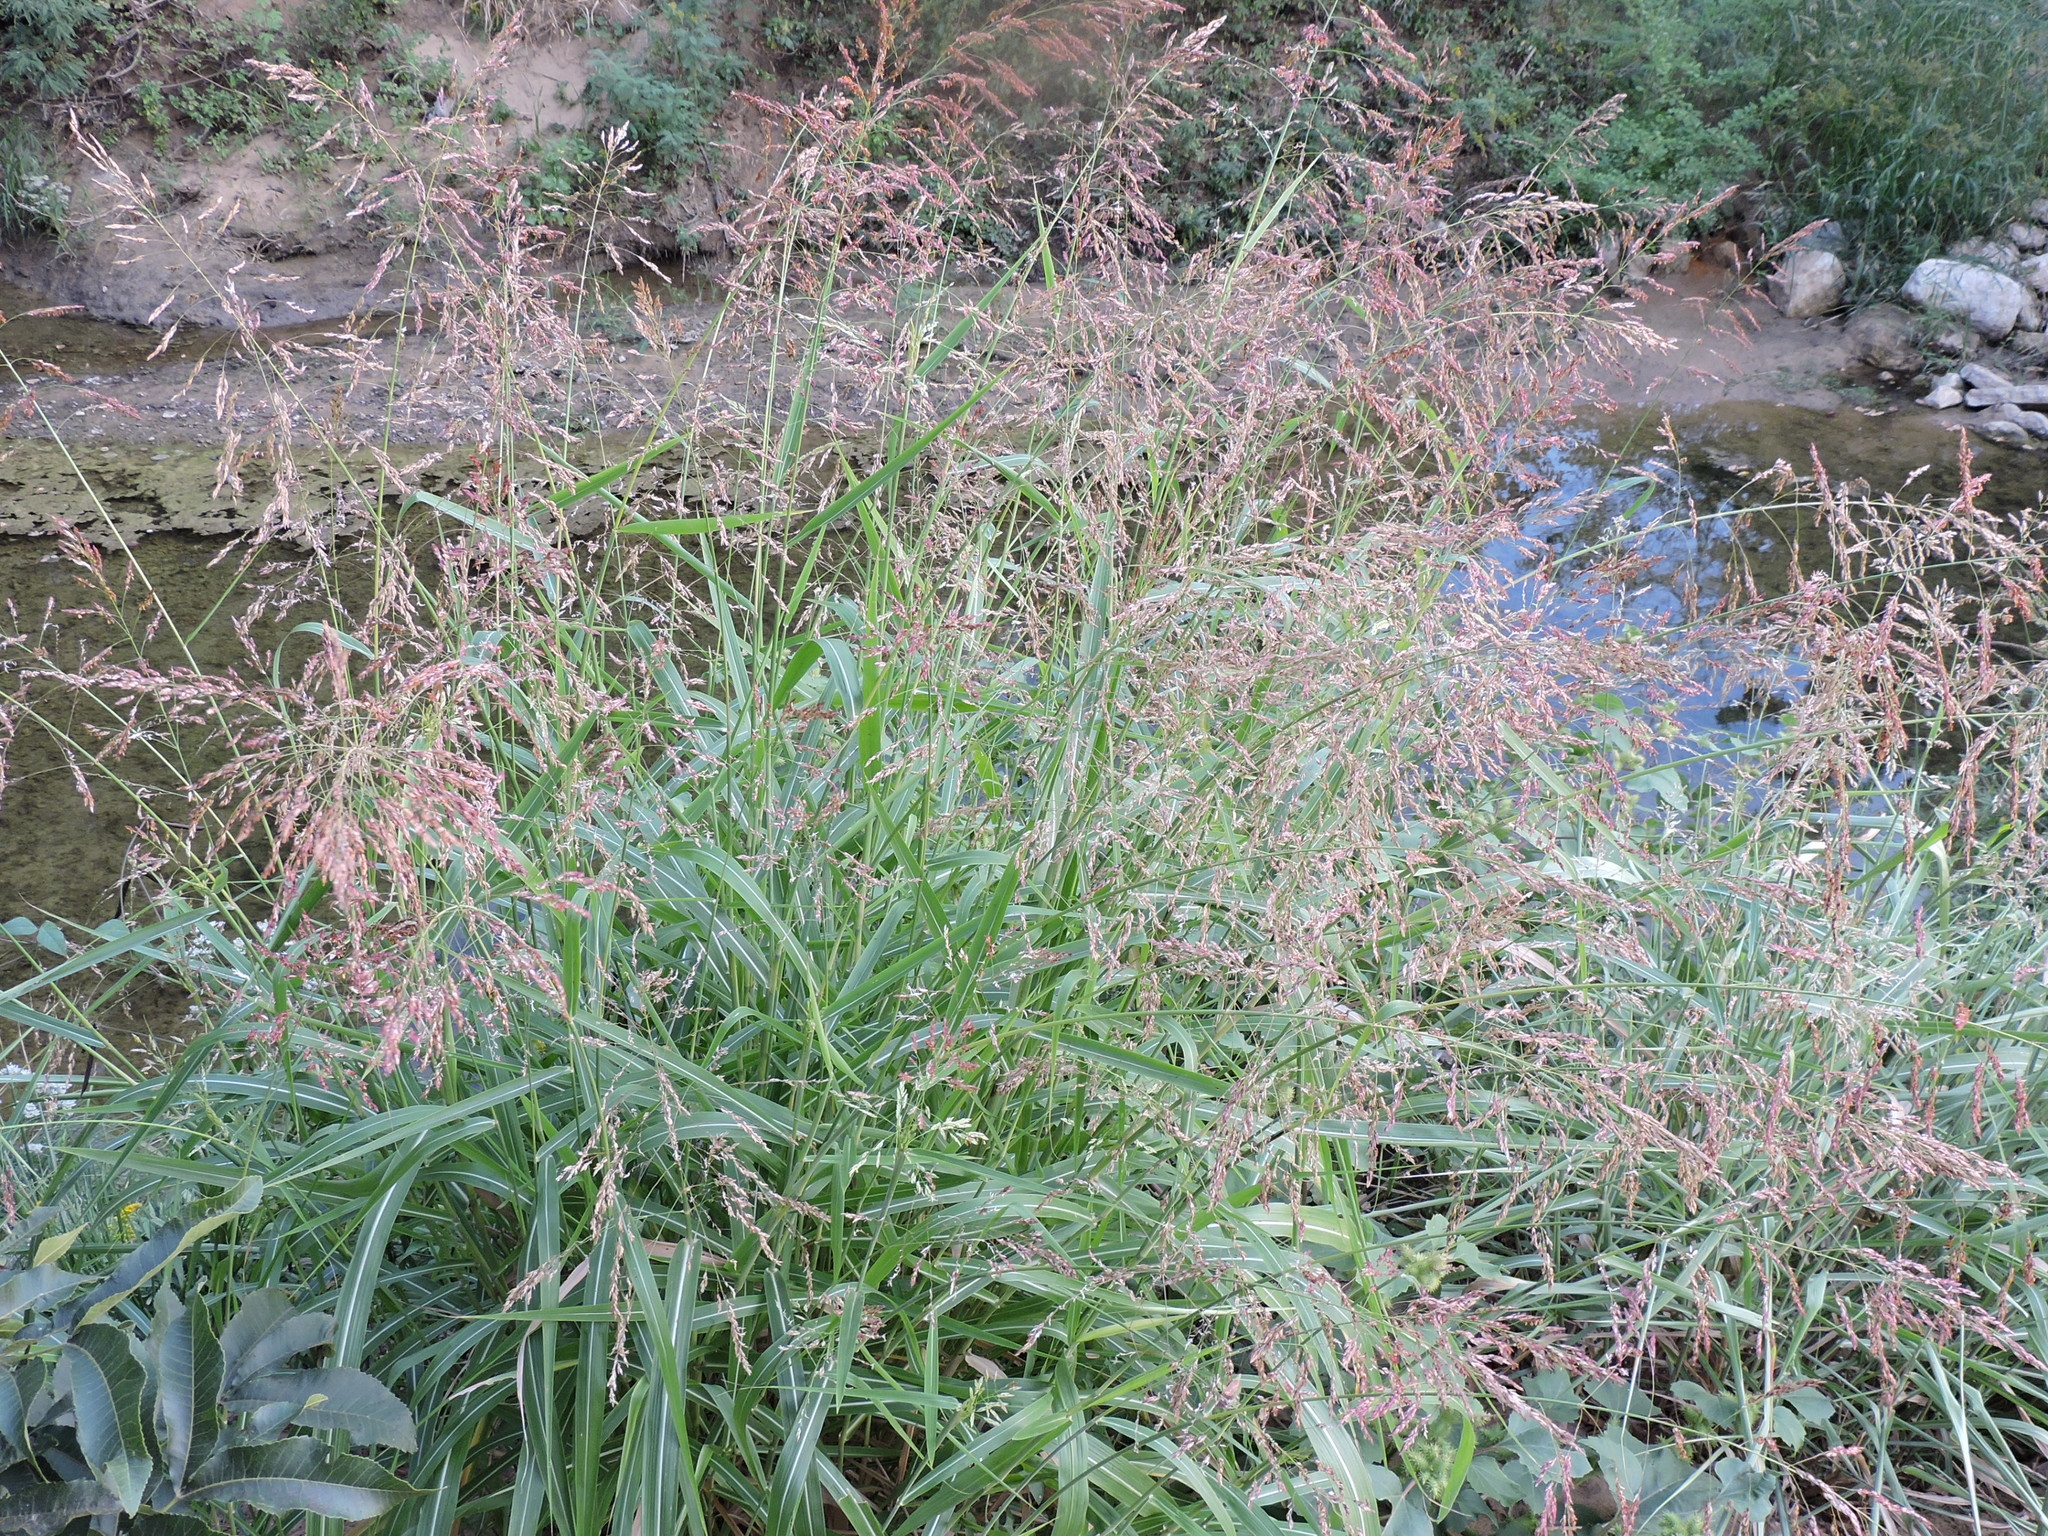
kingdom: Plantae
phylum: Tracheophyta
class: Liliopsida
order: Poales
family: Poaceae
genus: Sorghum
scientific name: Sorghum halepense
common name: Johnson-grass
